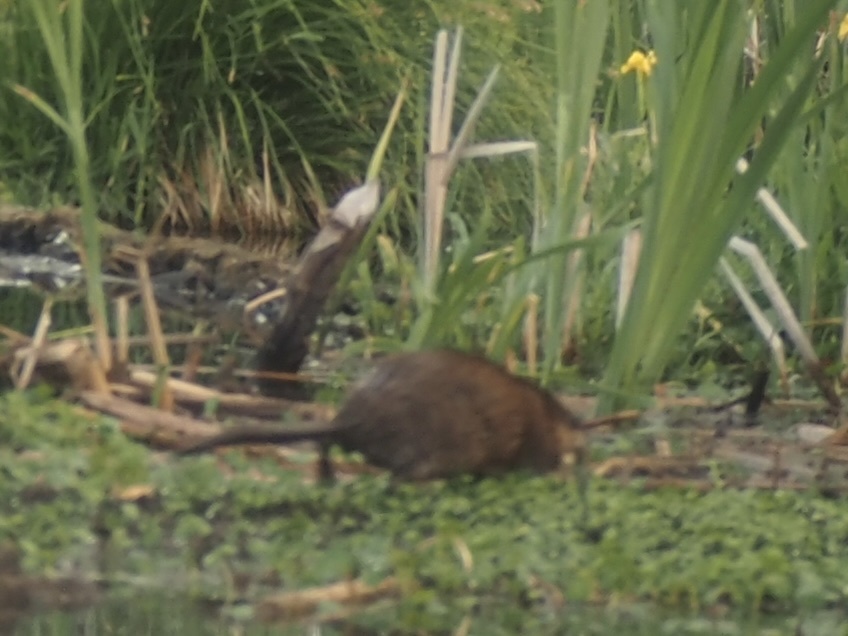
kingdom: Animalia
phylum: Chordata
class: Mammalia
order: Rodentia
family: Cricetidae
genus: Ondatra
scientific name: Ondatra zibethicus
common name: Muskrat
